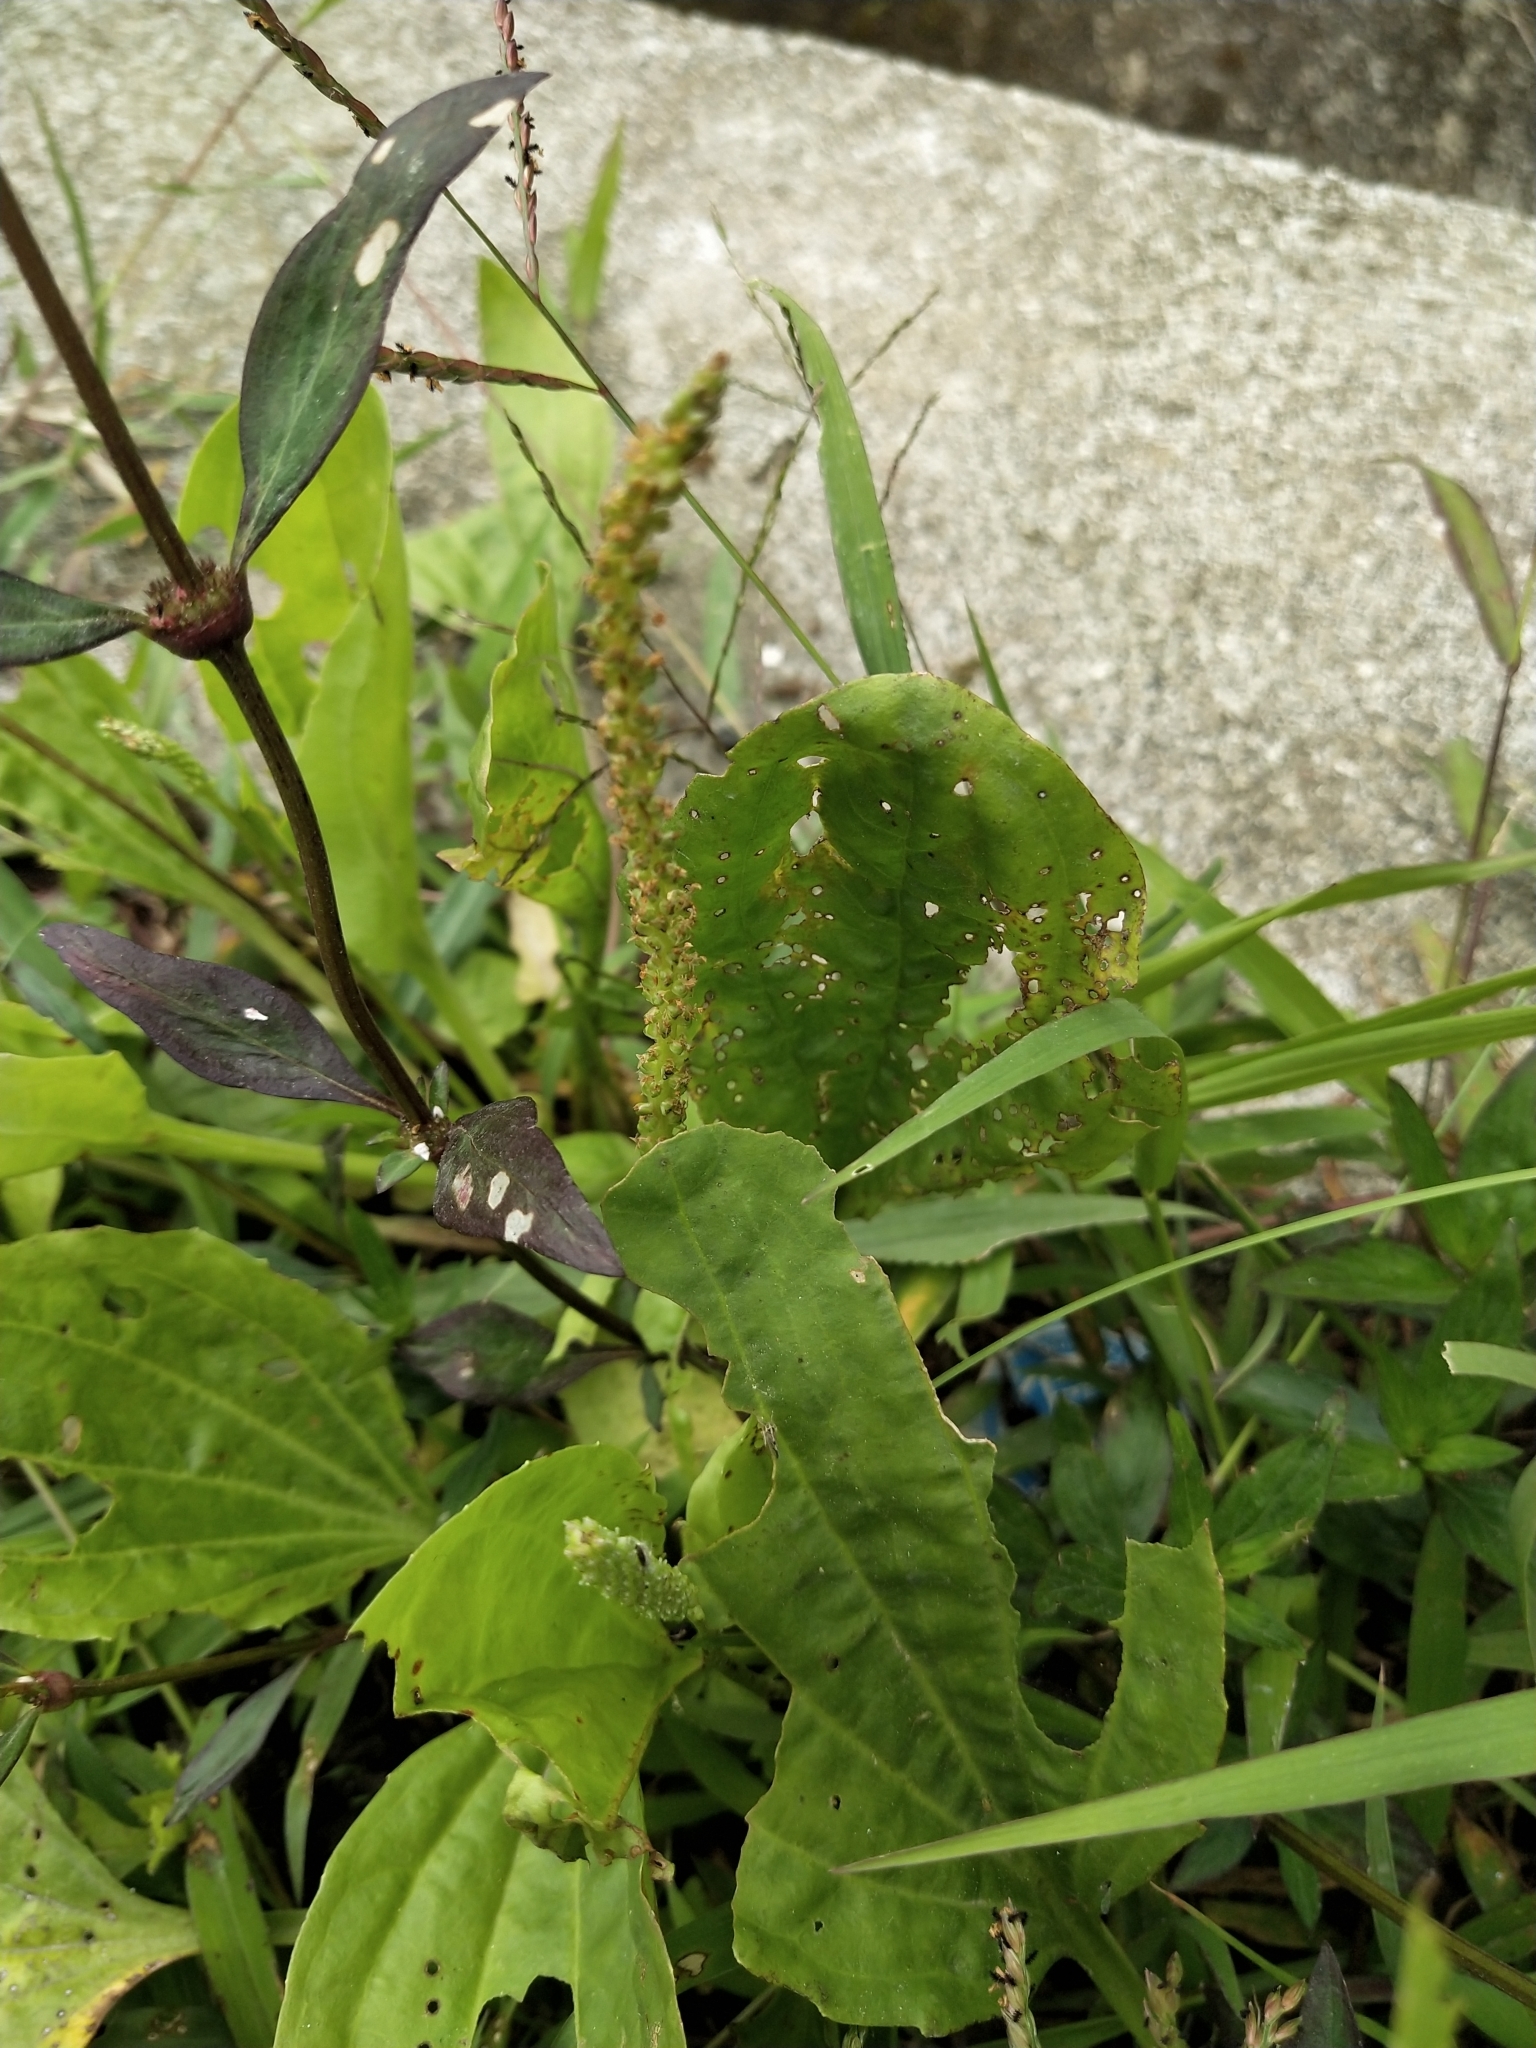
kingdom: Plantae
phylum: Tracheophyta
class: Magnoliopsida
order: Lamiales
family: Plantaginaceae
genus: Plantago
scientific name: Plantago major
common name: Common plantain
